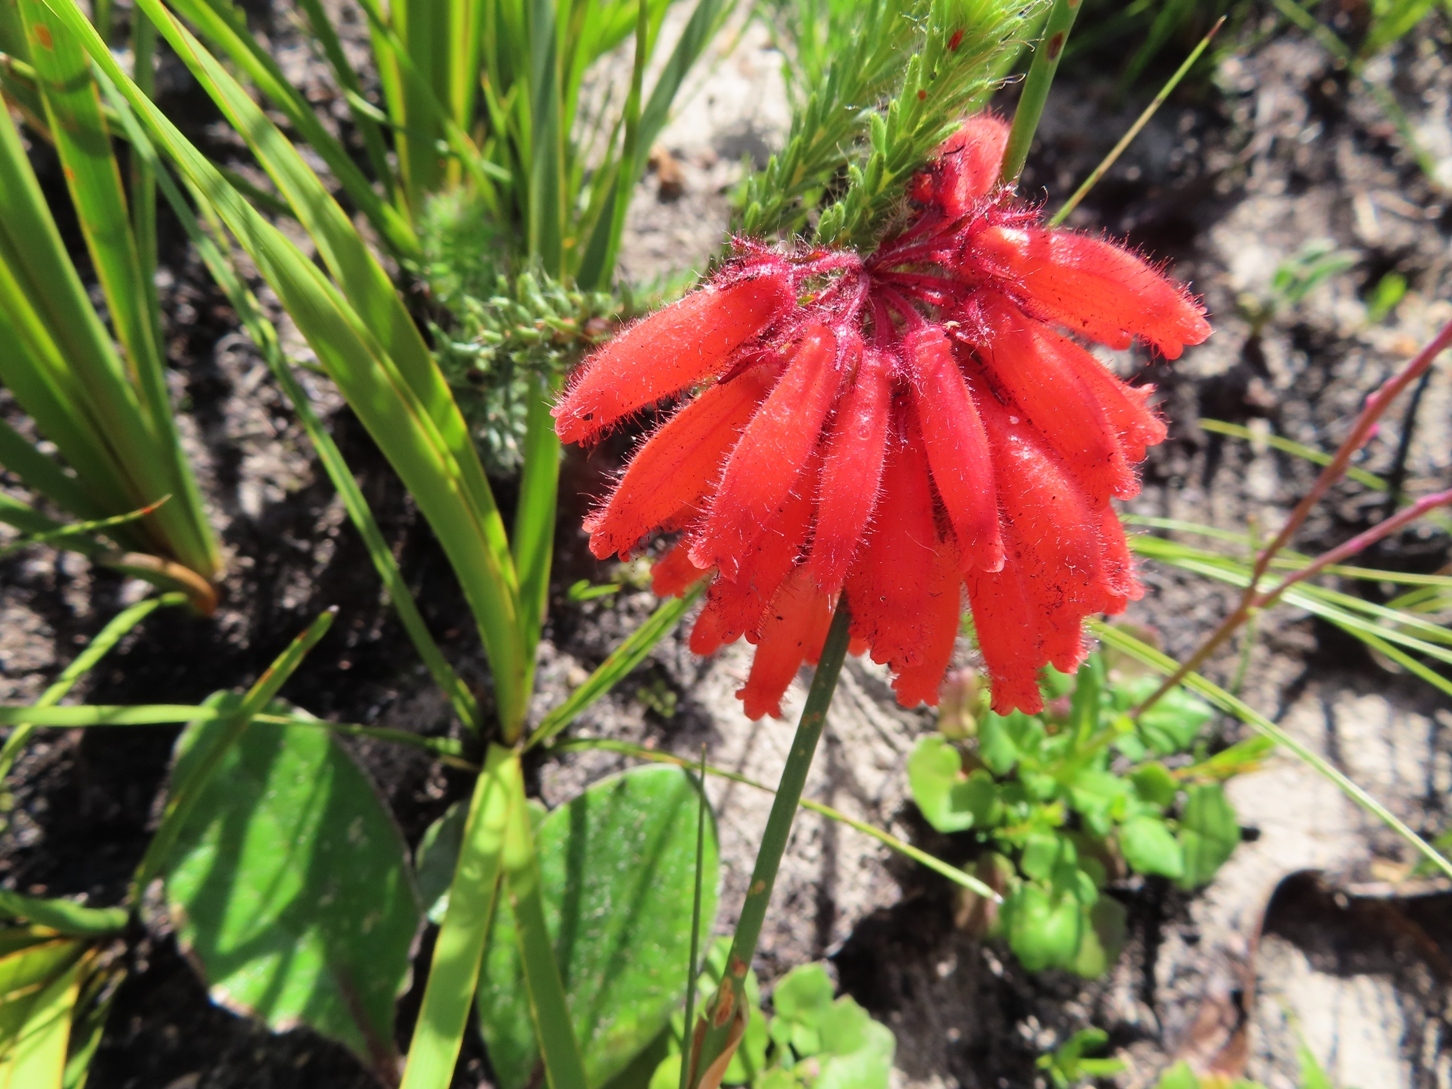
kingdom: Plantae
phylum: Tracheophyta
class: Magnoliopsida
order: Ericales
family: Ericaceae
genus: Erica
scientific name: Erica cerinthoides
